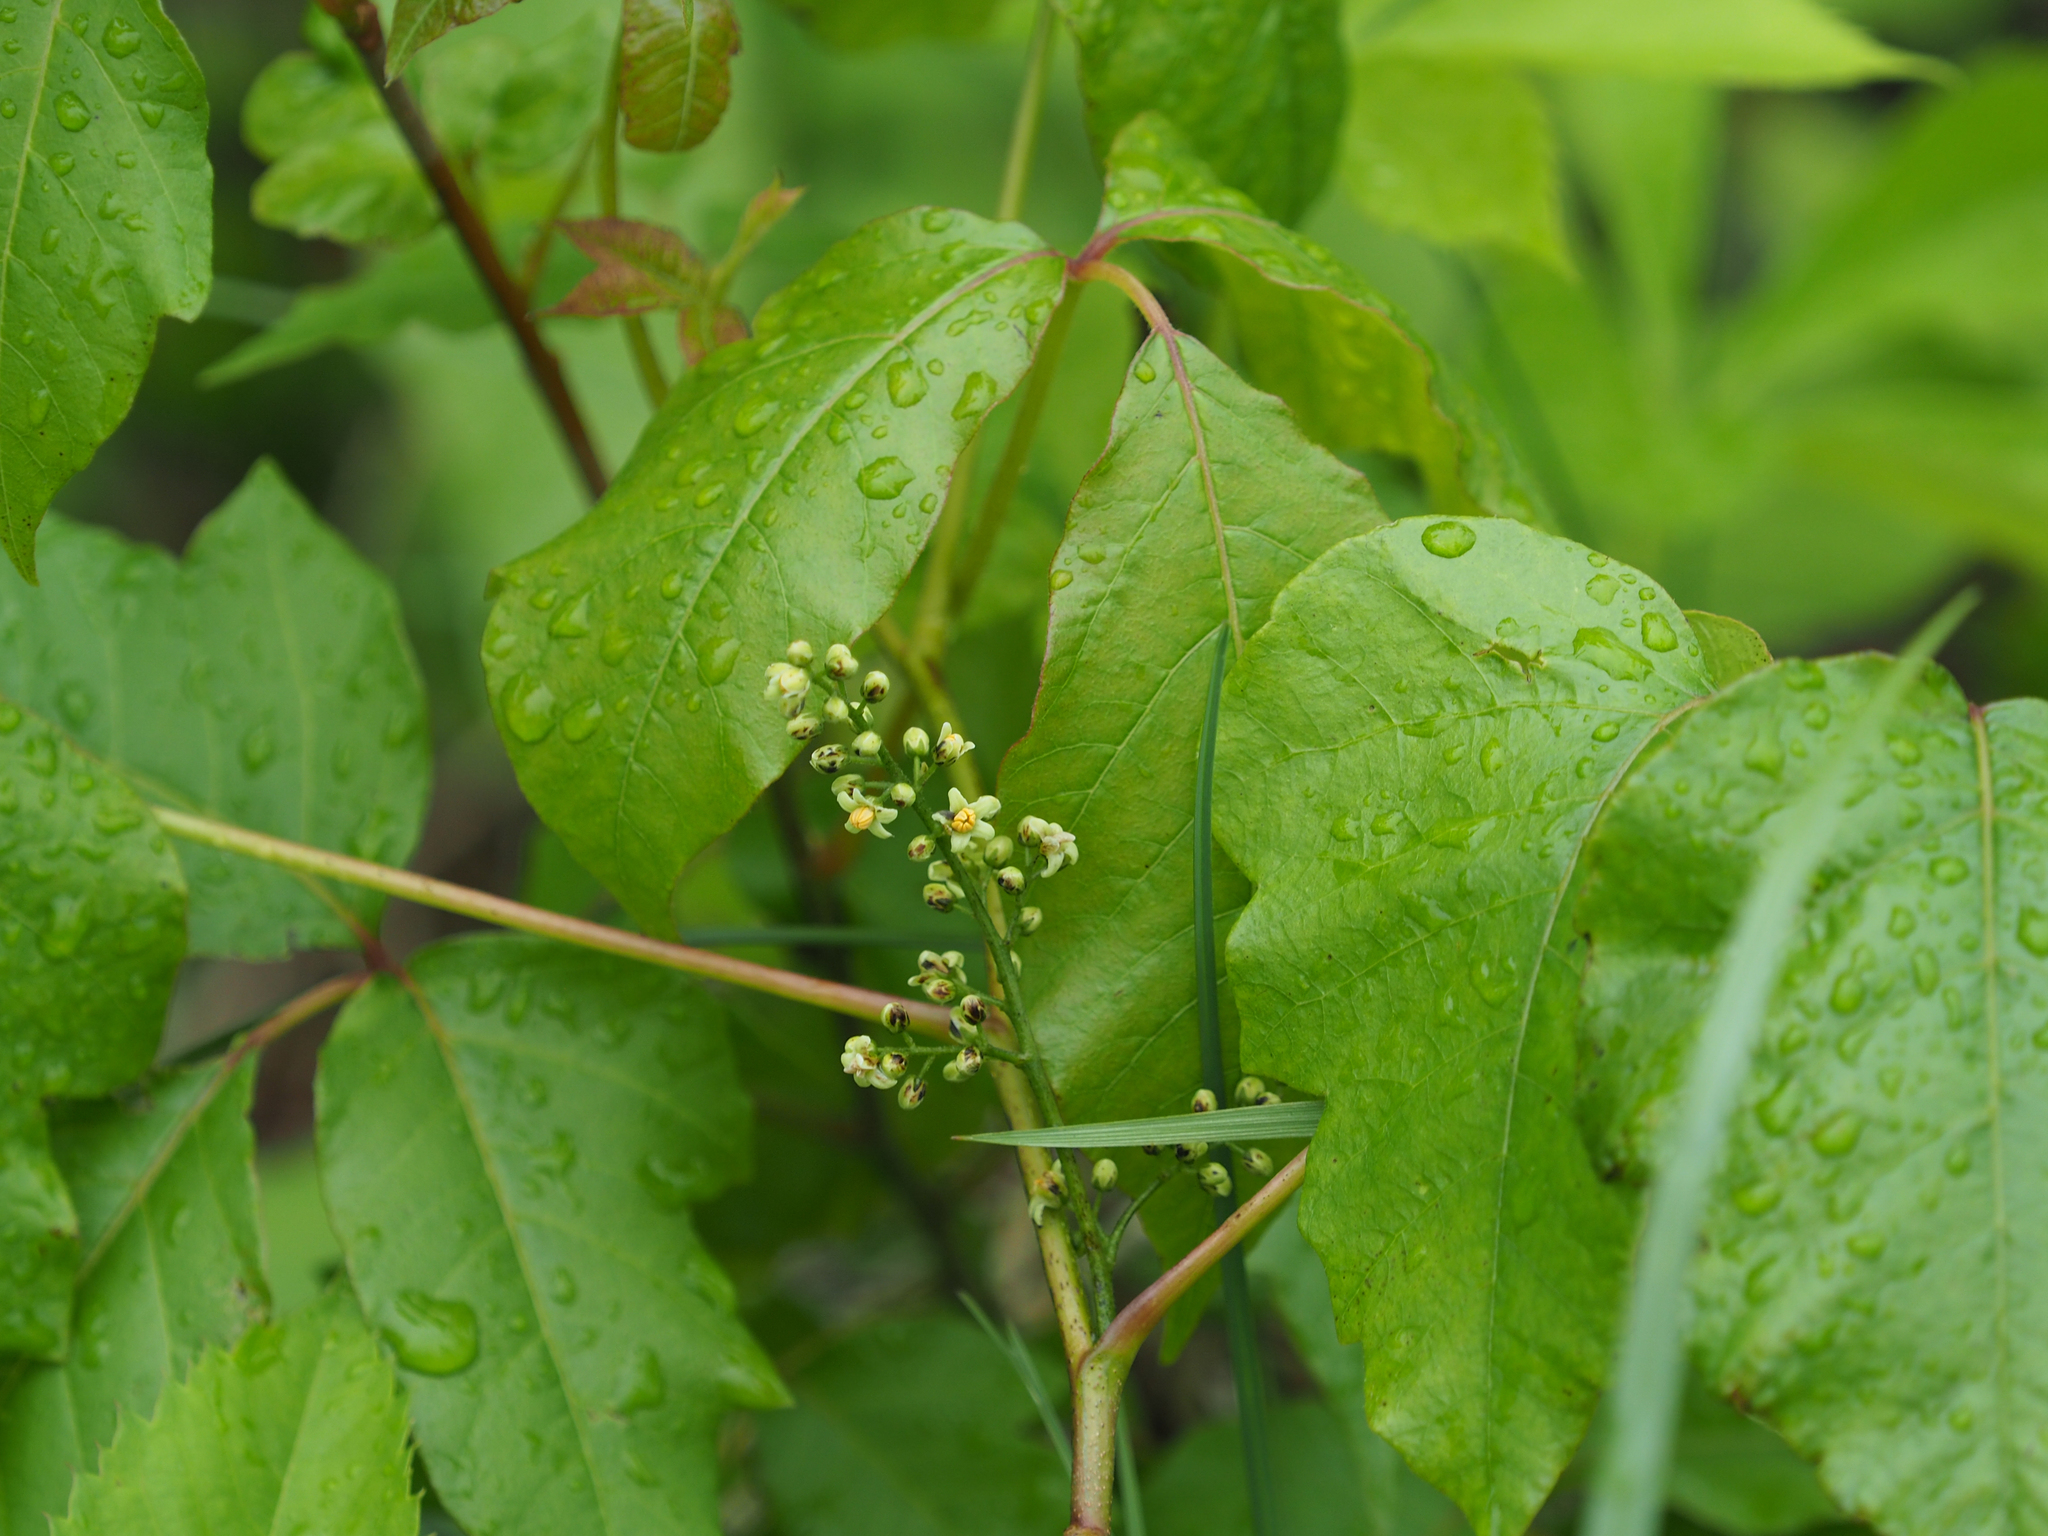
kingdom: Plantae
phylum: Tracheophyta
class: Magnoliopsida
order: Sapindales
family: Anacardiaceae
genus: Toxicodendron
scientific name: Toxicodendron radicans
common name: Poison ivy
